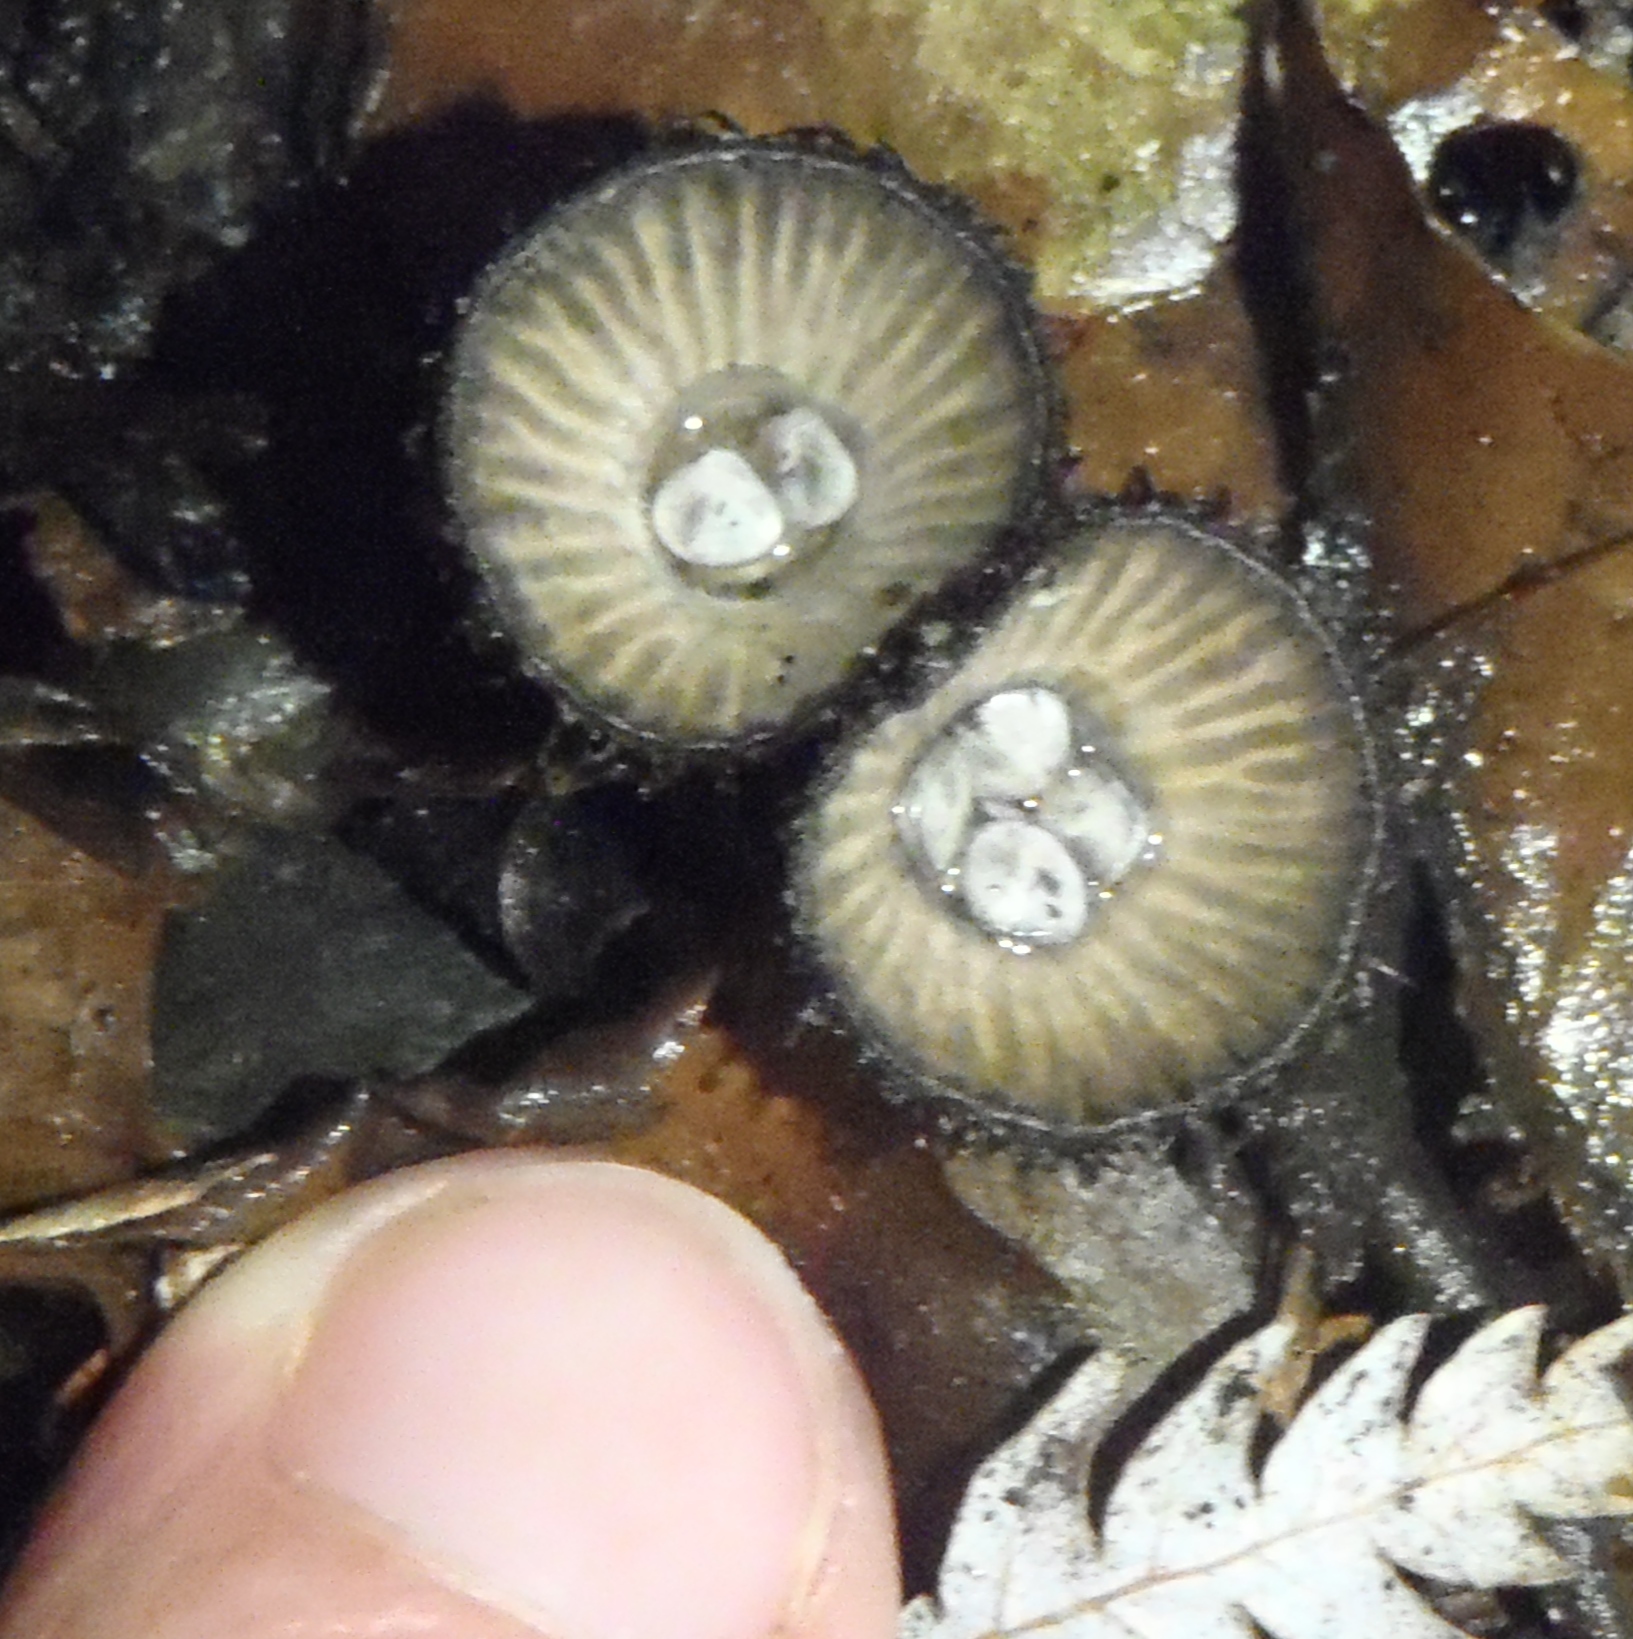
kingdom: Fungi
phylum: Basidiomycota
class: Agaricomycetes
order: Agaricales
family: Agaricaceae
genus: Cyathus
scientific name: Cyathus striatus
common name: Fluted bird's nest
